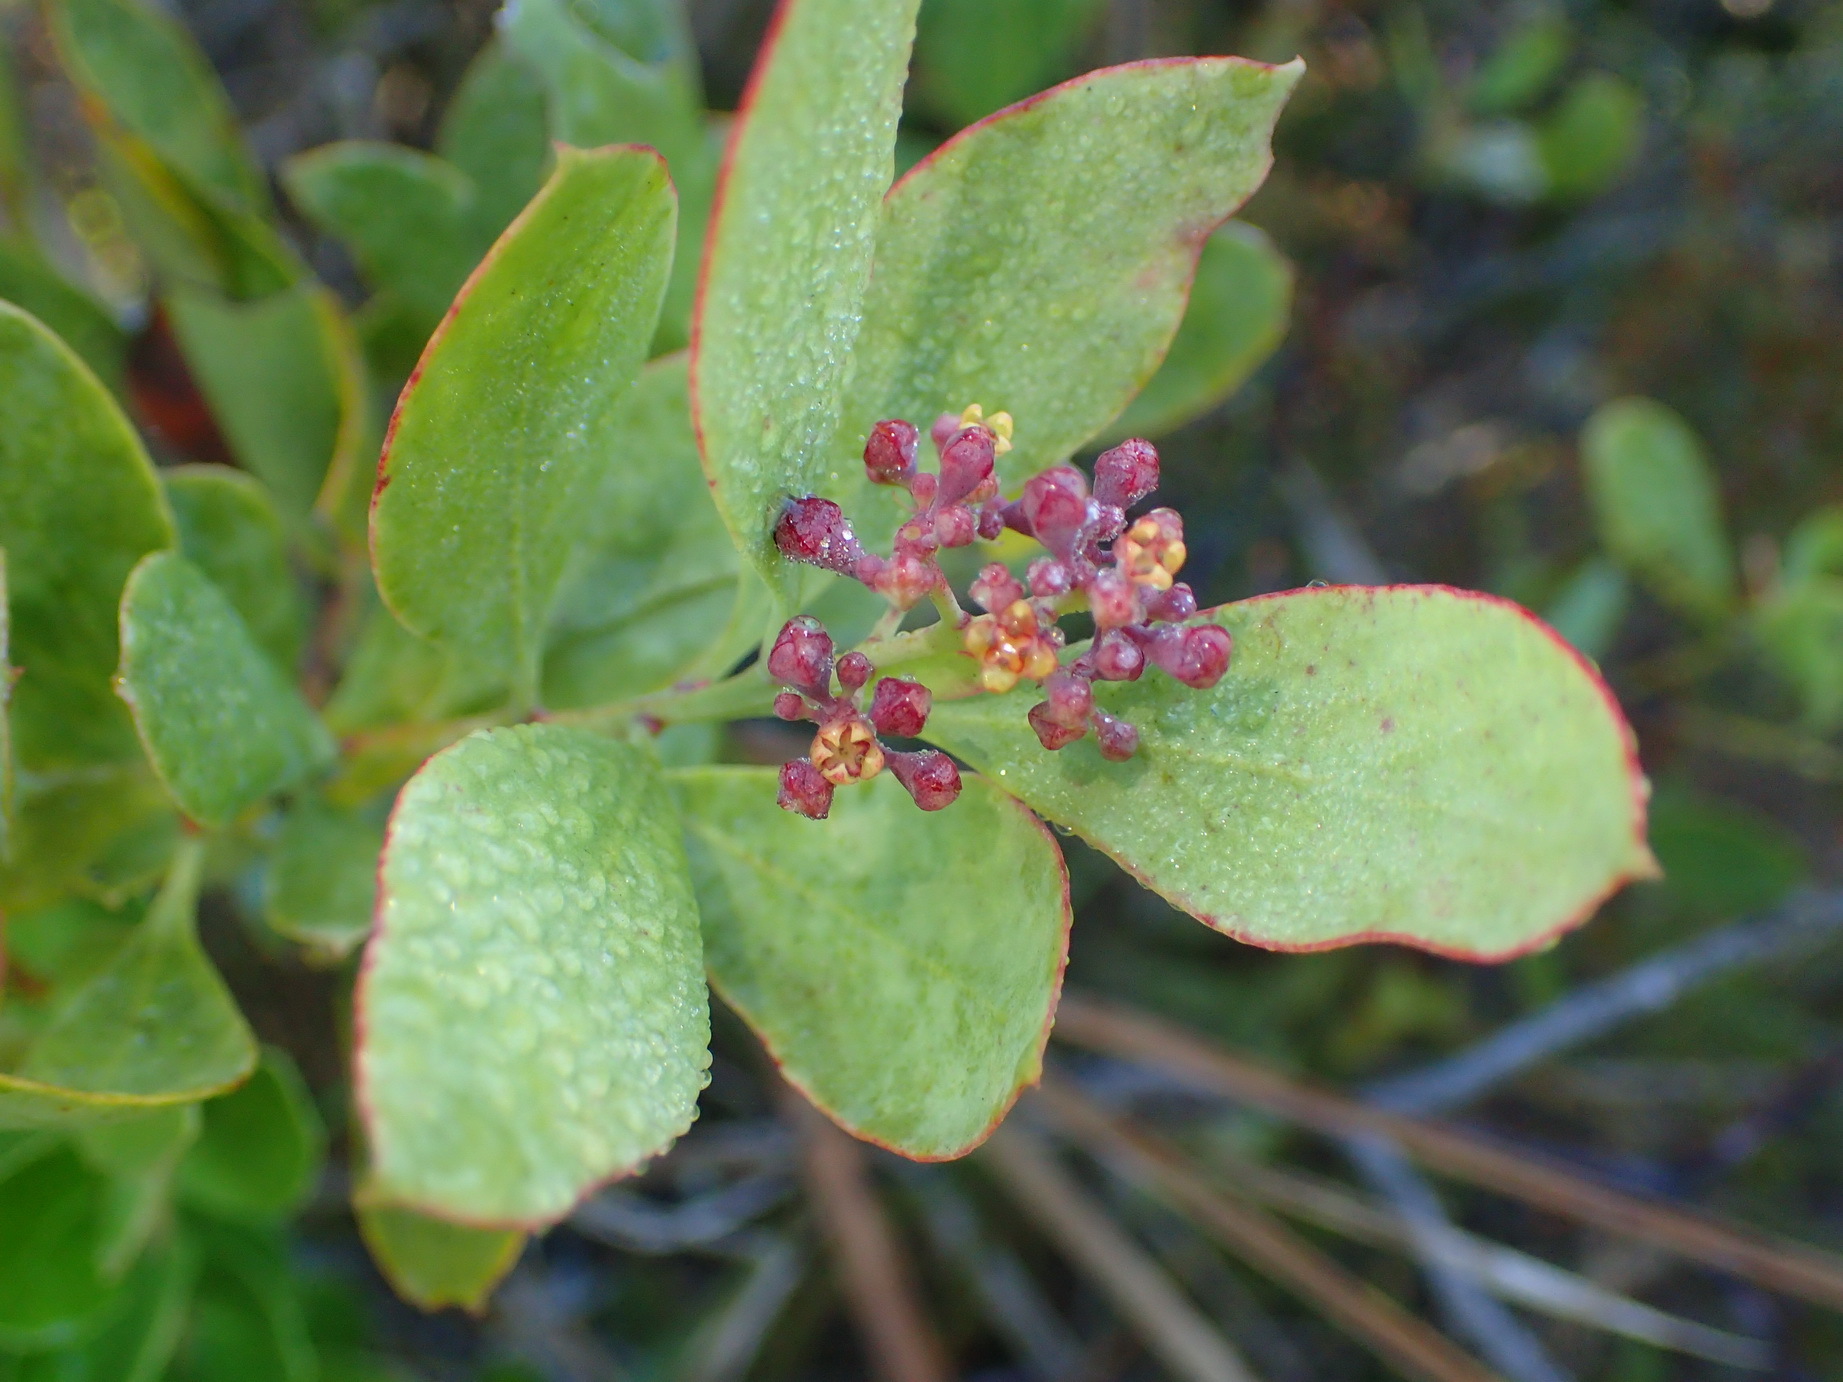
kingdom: Plantae
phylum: Tracheophyta
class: Magnoliopsida
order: Santalales
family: Santalaceae
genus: Osyris
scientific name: Osyris compressa
